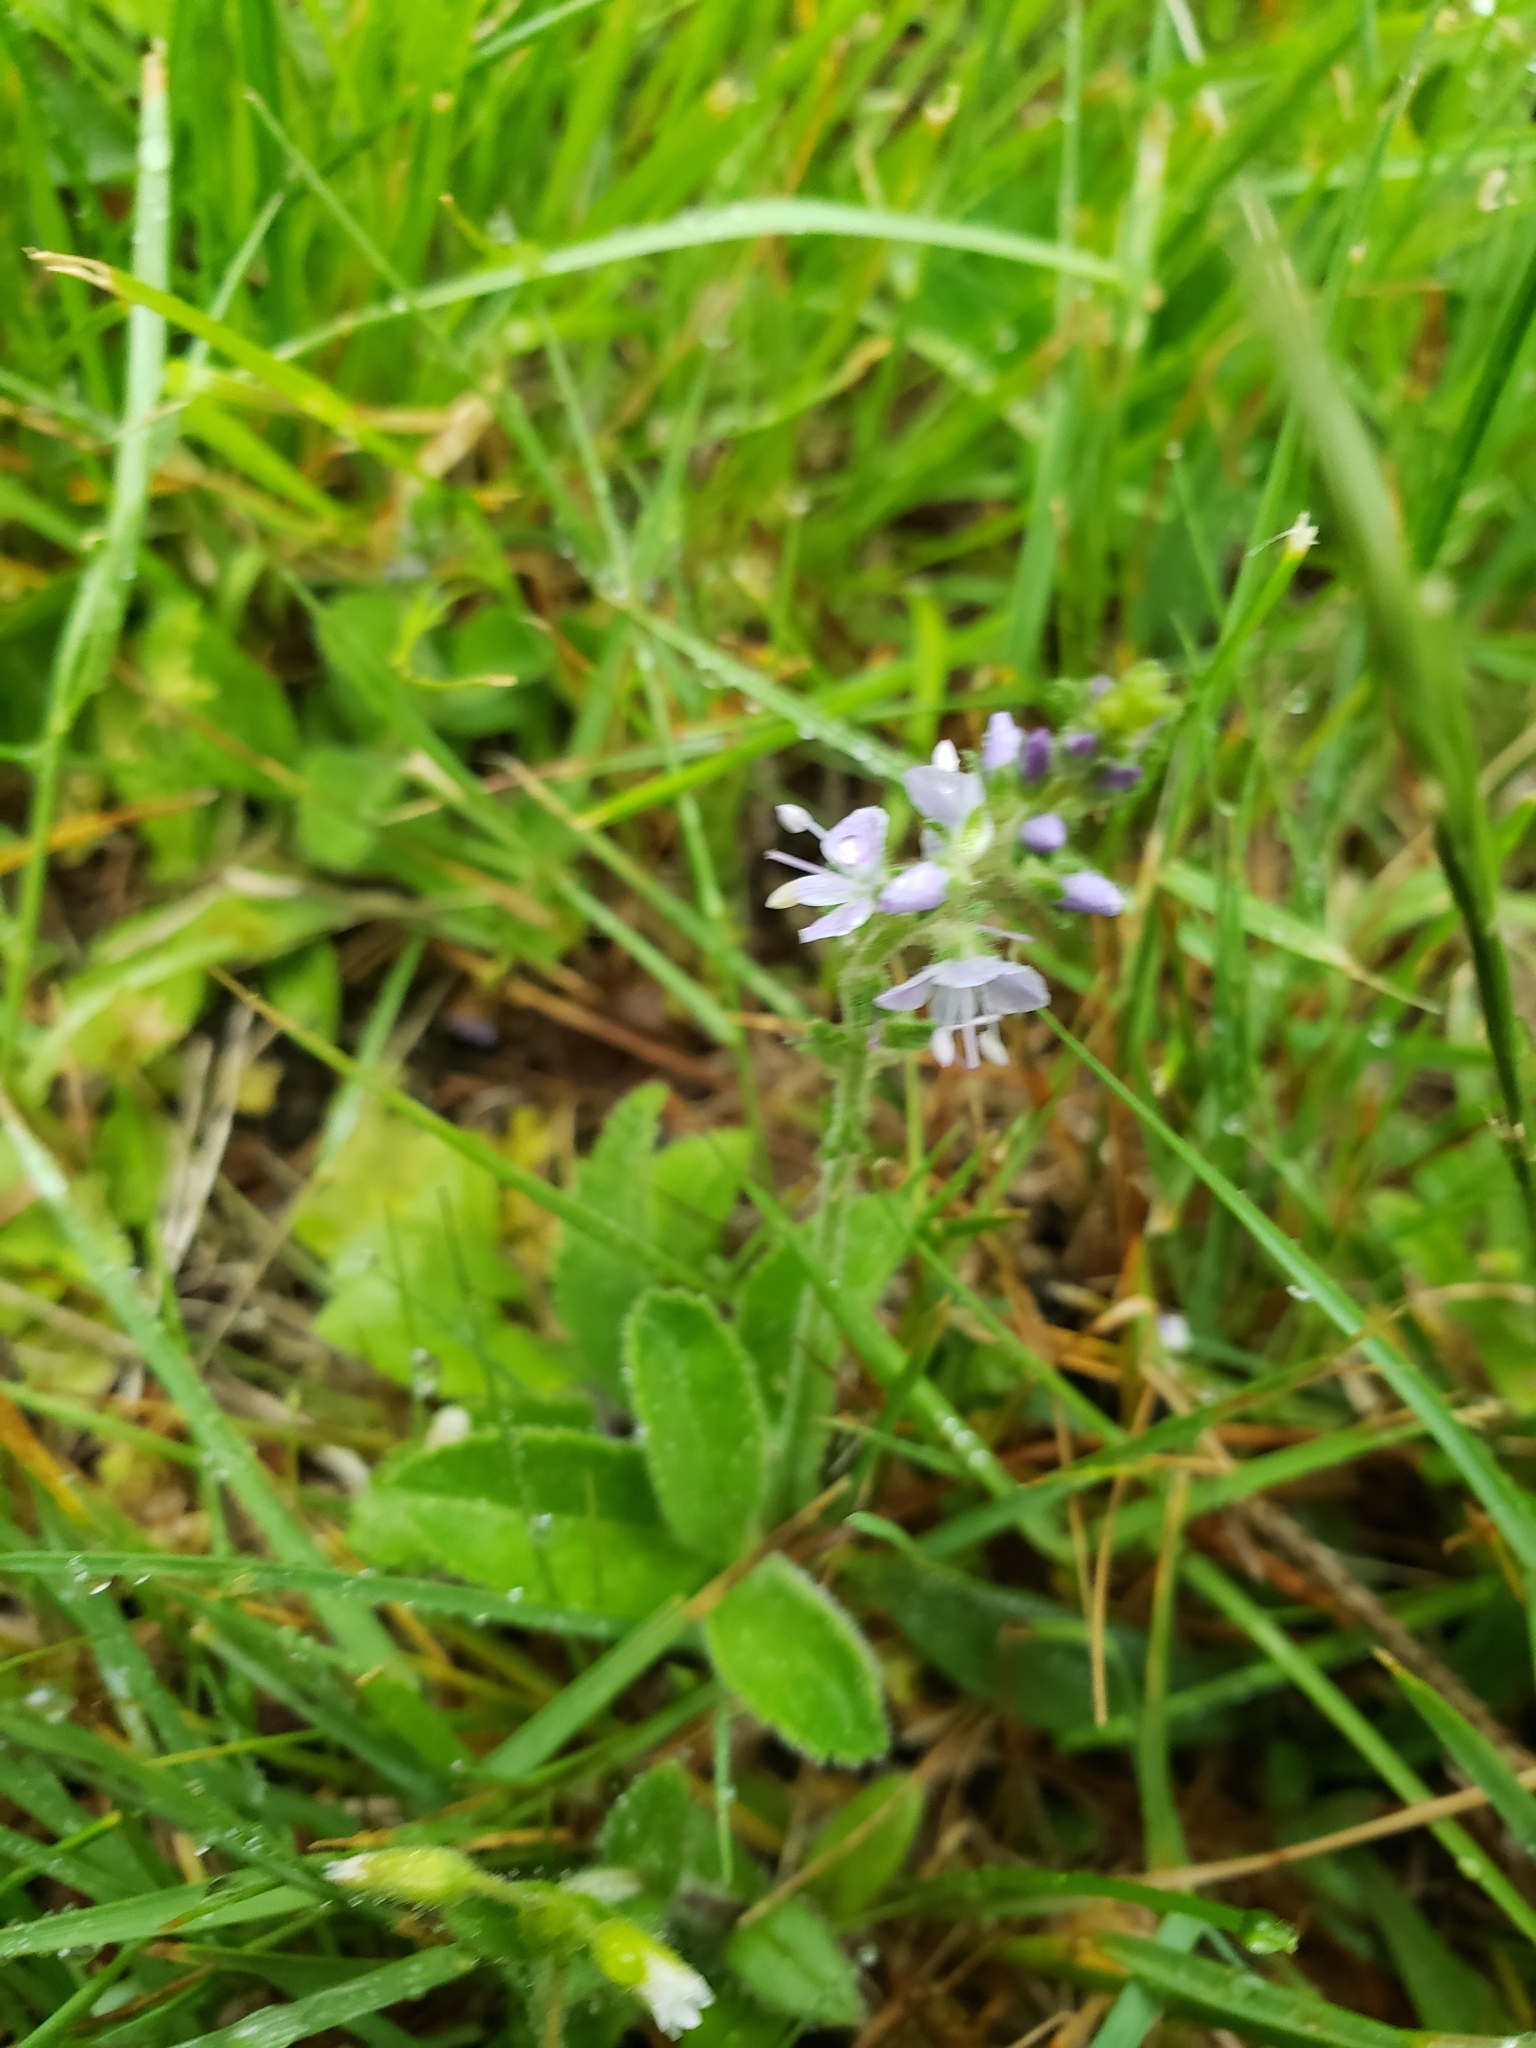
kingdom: Plantae
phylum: Tracheophyta
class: Magnoliopsida
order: Lamiales
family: Plantaginaceae
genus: Veronica
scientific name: Veronica officinalis
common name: Common speedwell
